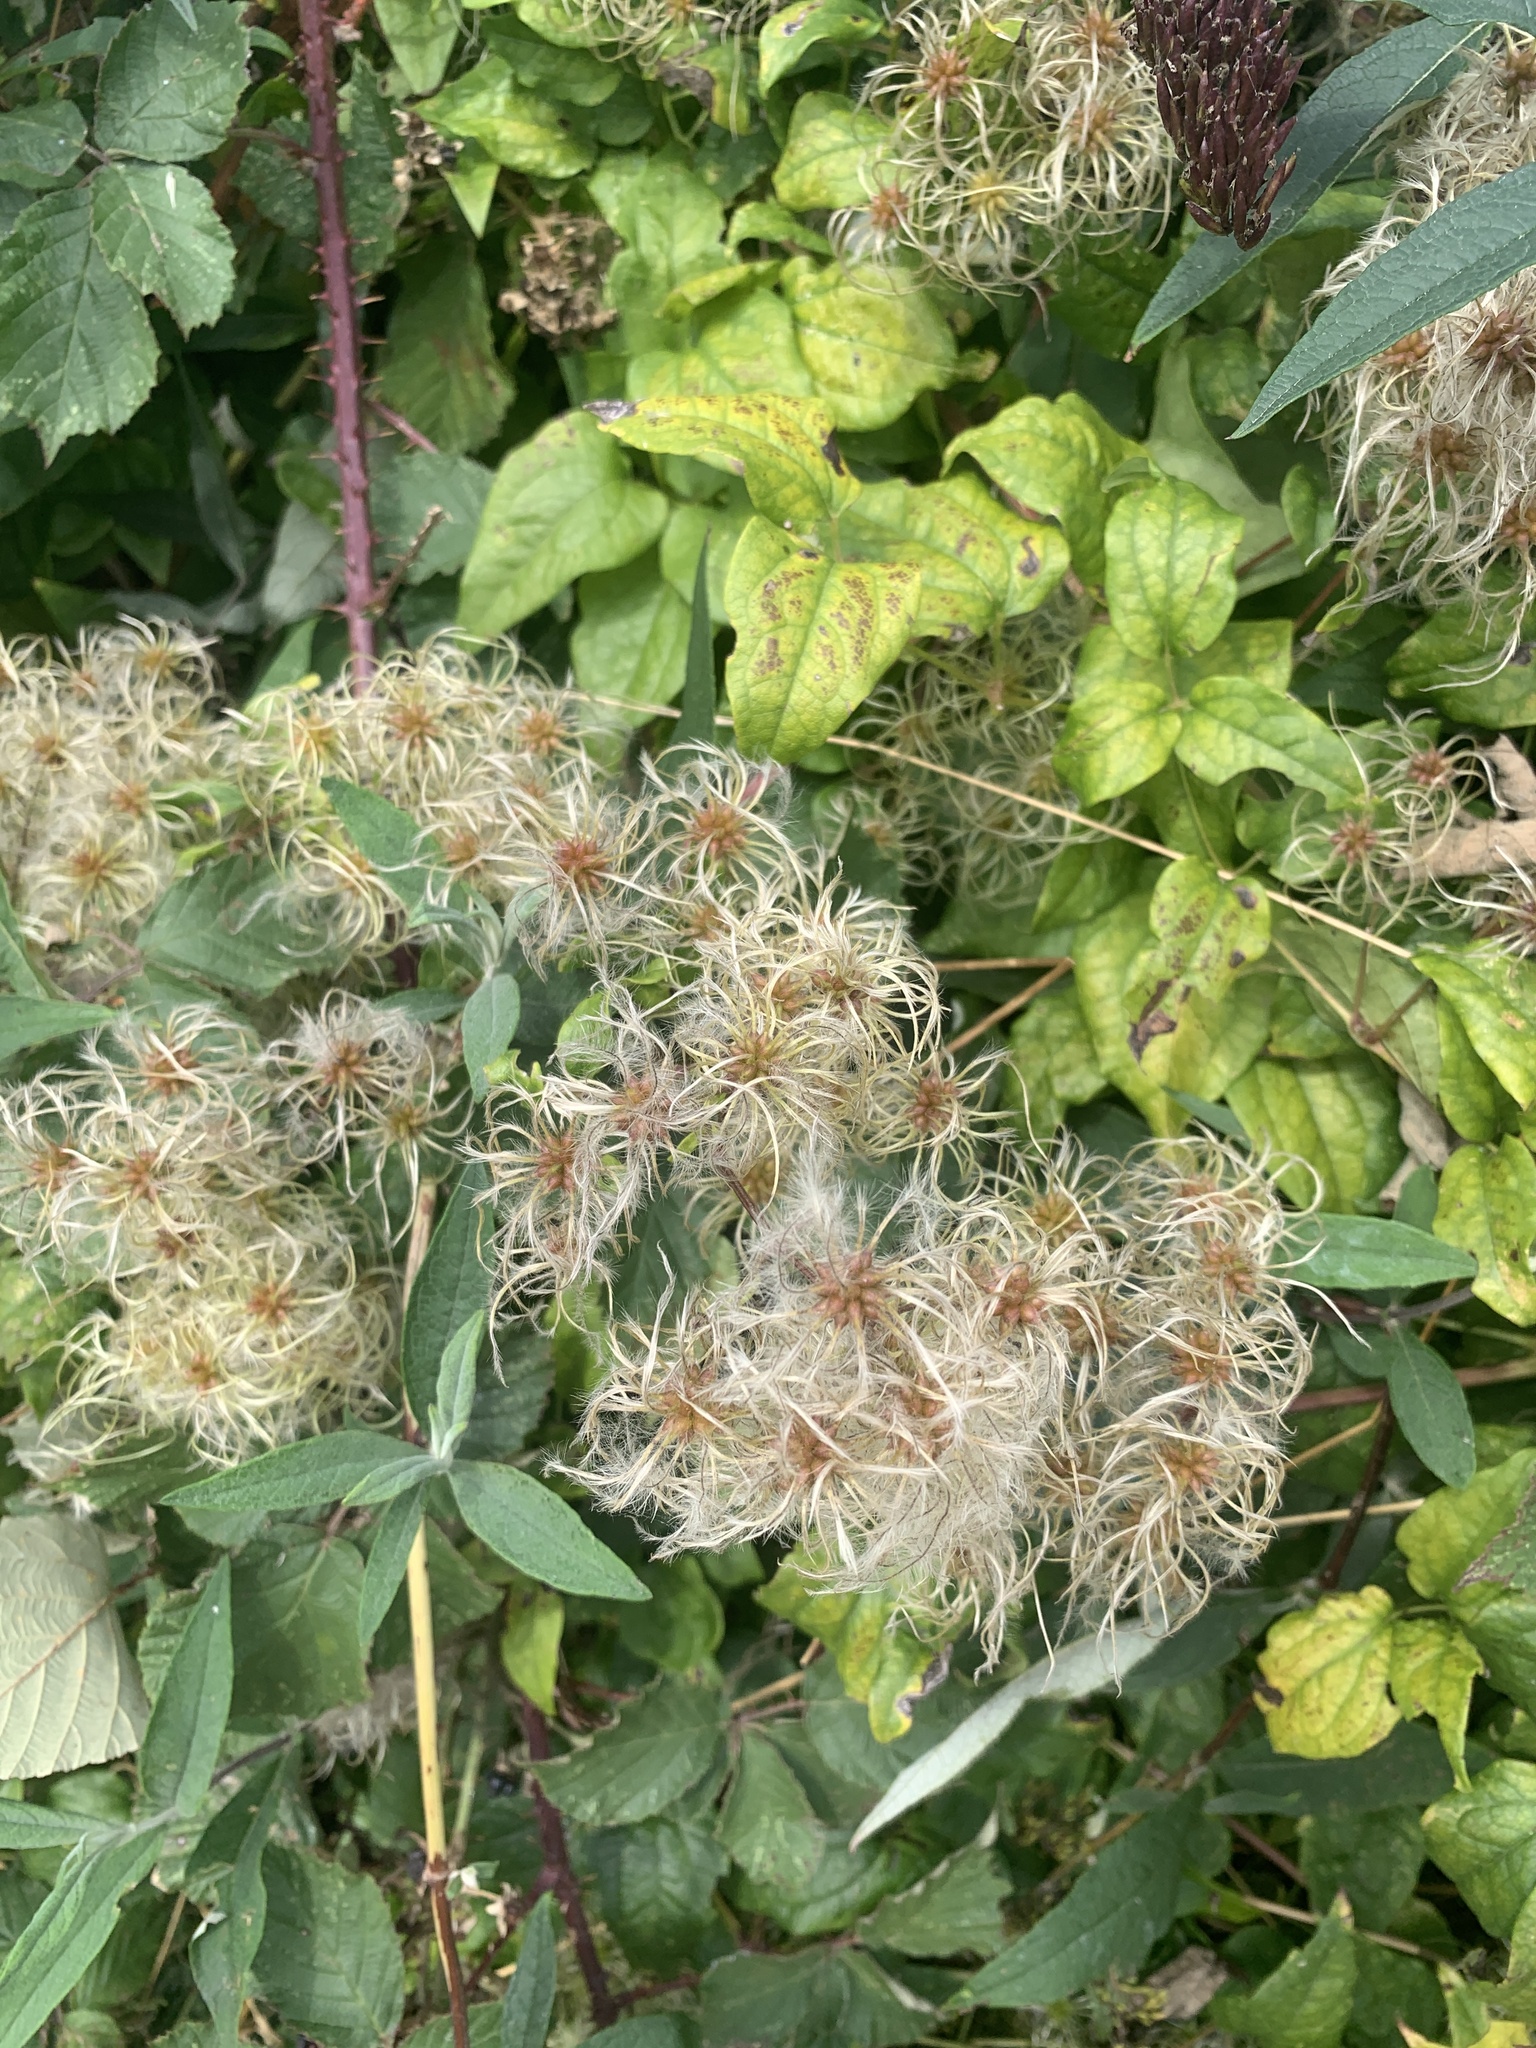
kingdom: Plantae
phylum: Tracheophyta
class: Magnoliopsida
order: Ranunculales
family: Ranunculaceae
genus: Clematis
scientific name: Clematis vitalba
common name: Evergreen clematis
